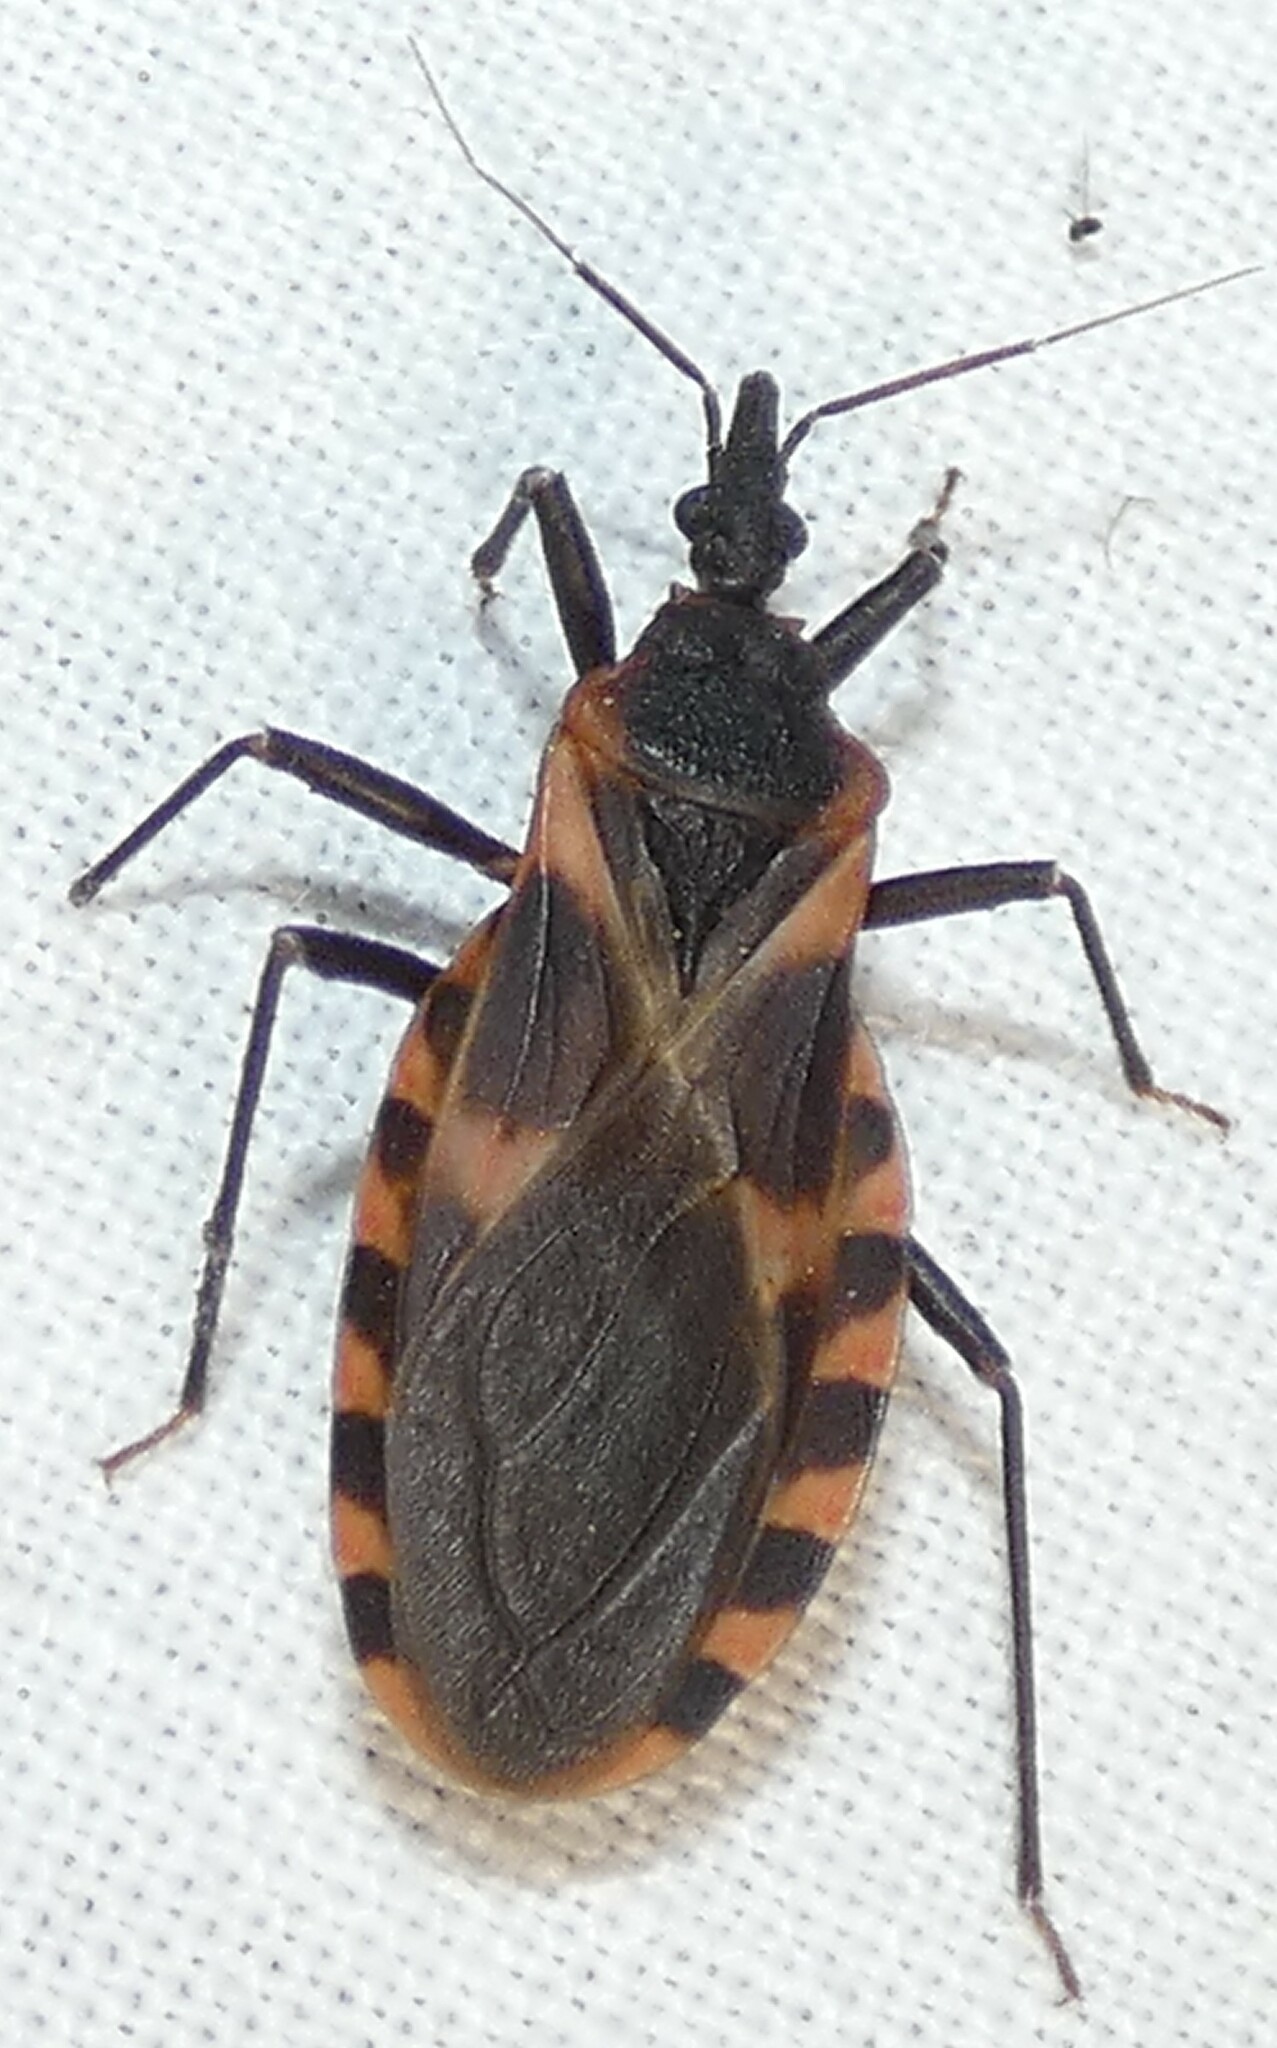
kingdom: Animalia
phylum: Arthropoda
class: Insecta
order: Hemiptera
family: Reduviidae
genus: Triatoma
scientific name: Triatoma sanguisuga
